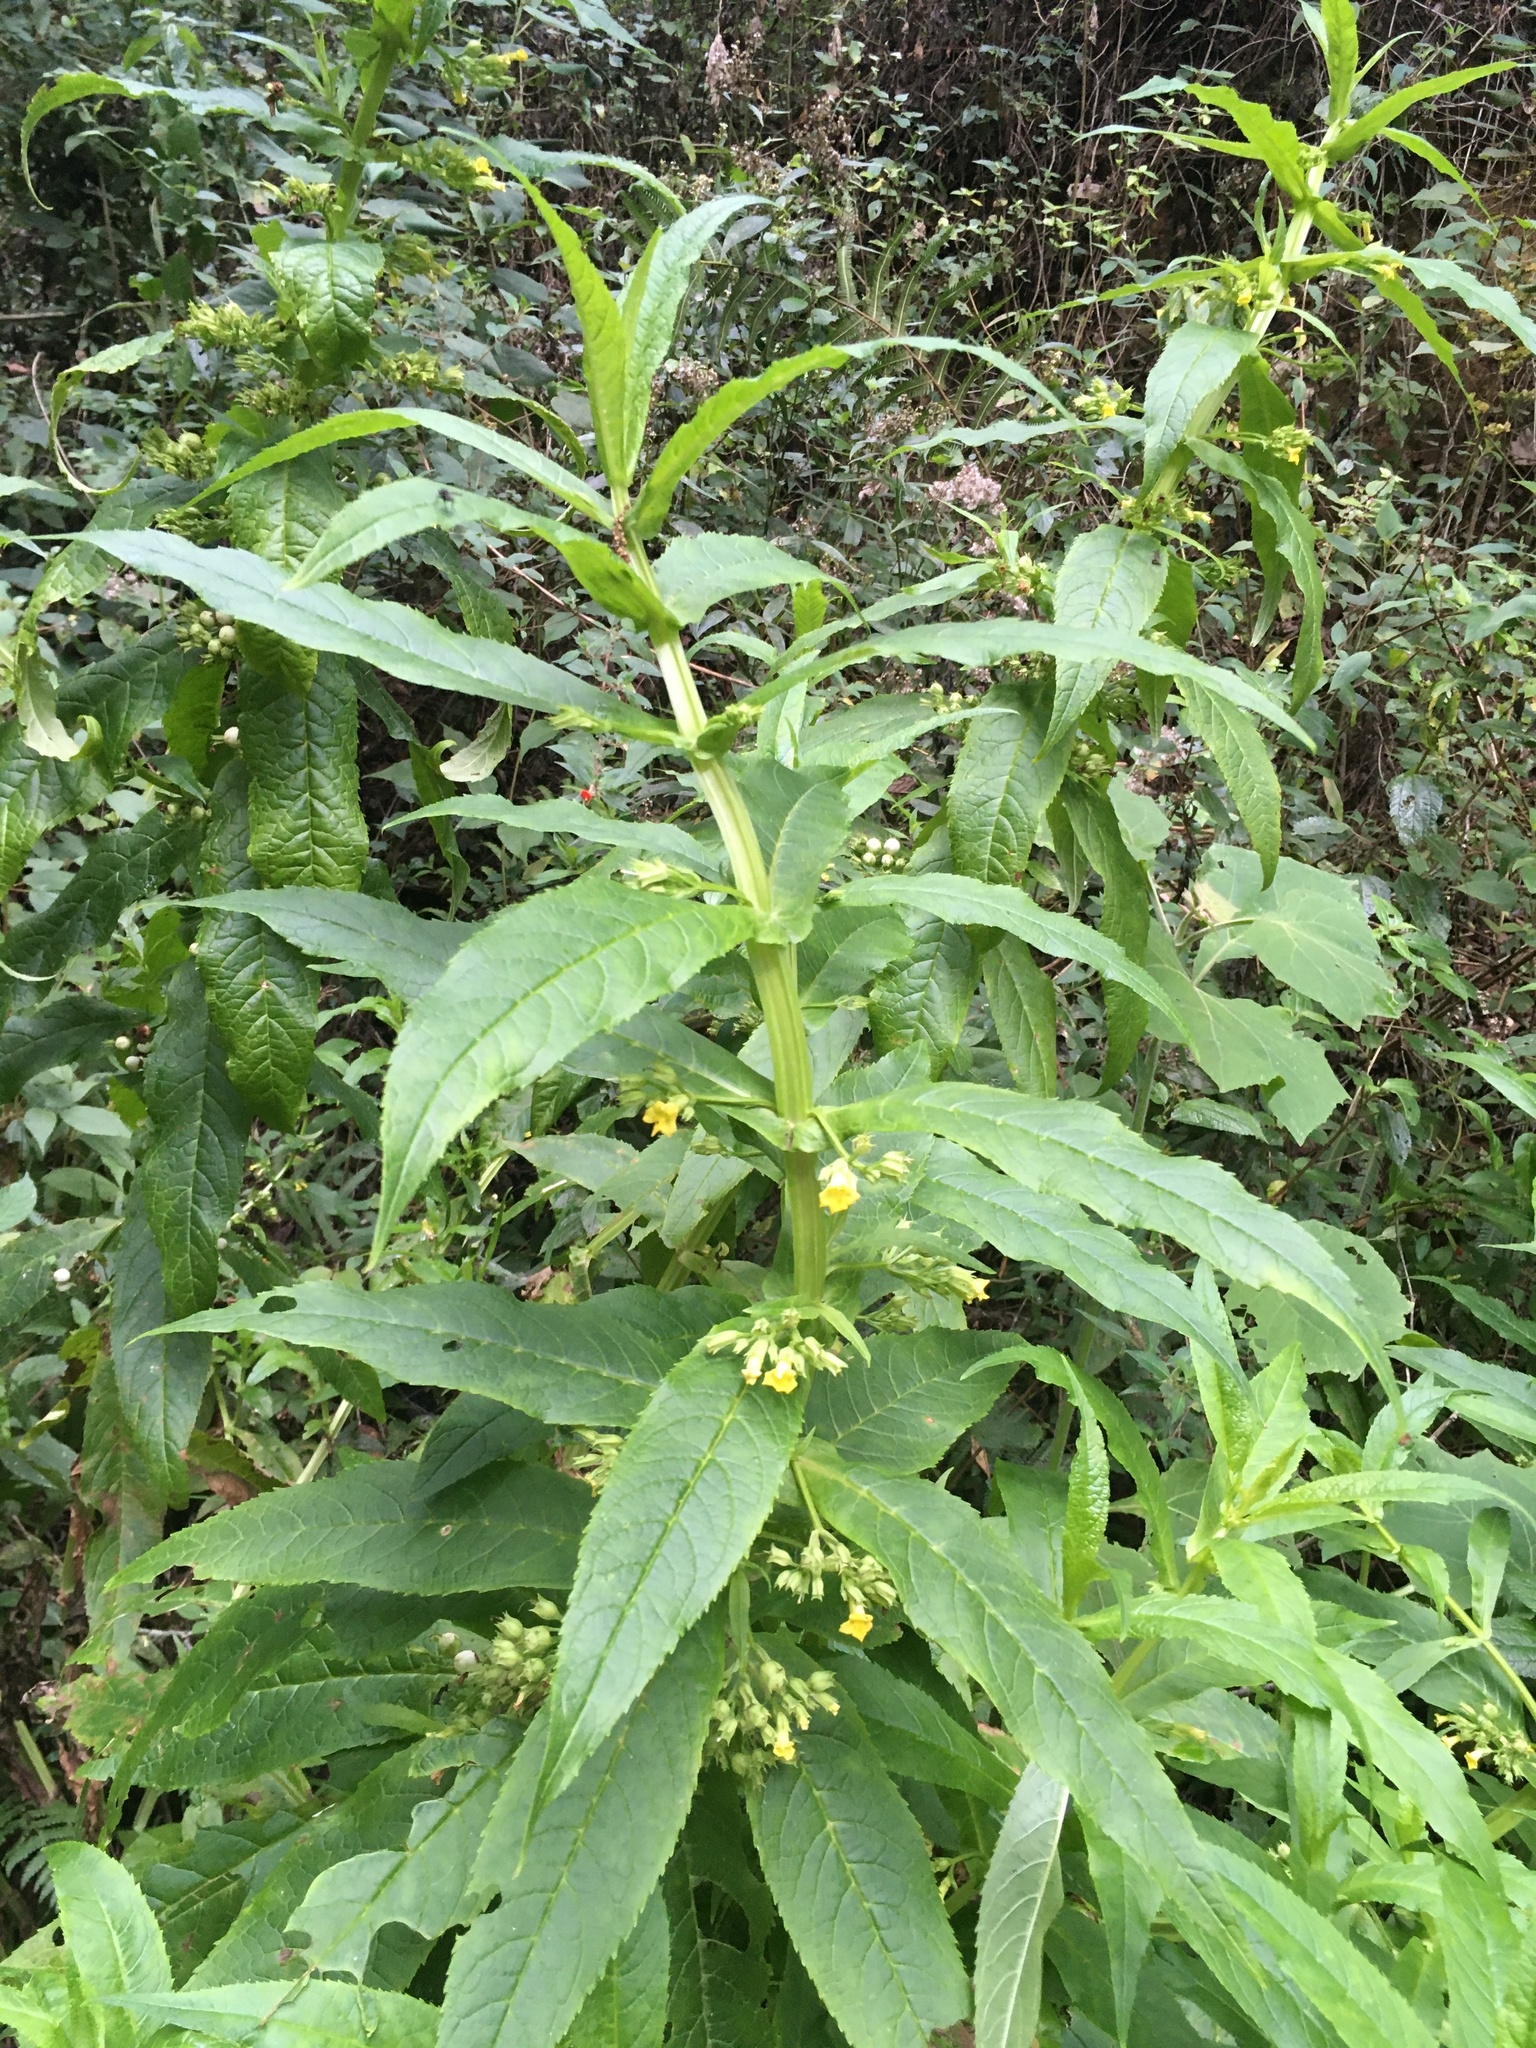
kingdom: Plantae
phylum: Tracheophyta
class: Magnoliopsida
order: Lamiales
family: Phrymaceae
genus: Leucocarpus
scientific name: Leucocarpus perfoliatus
